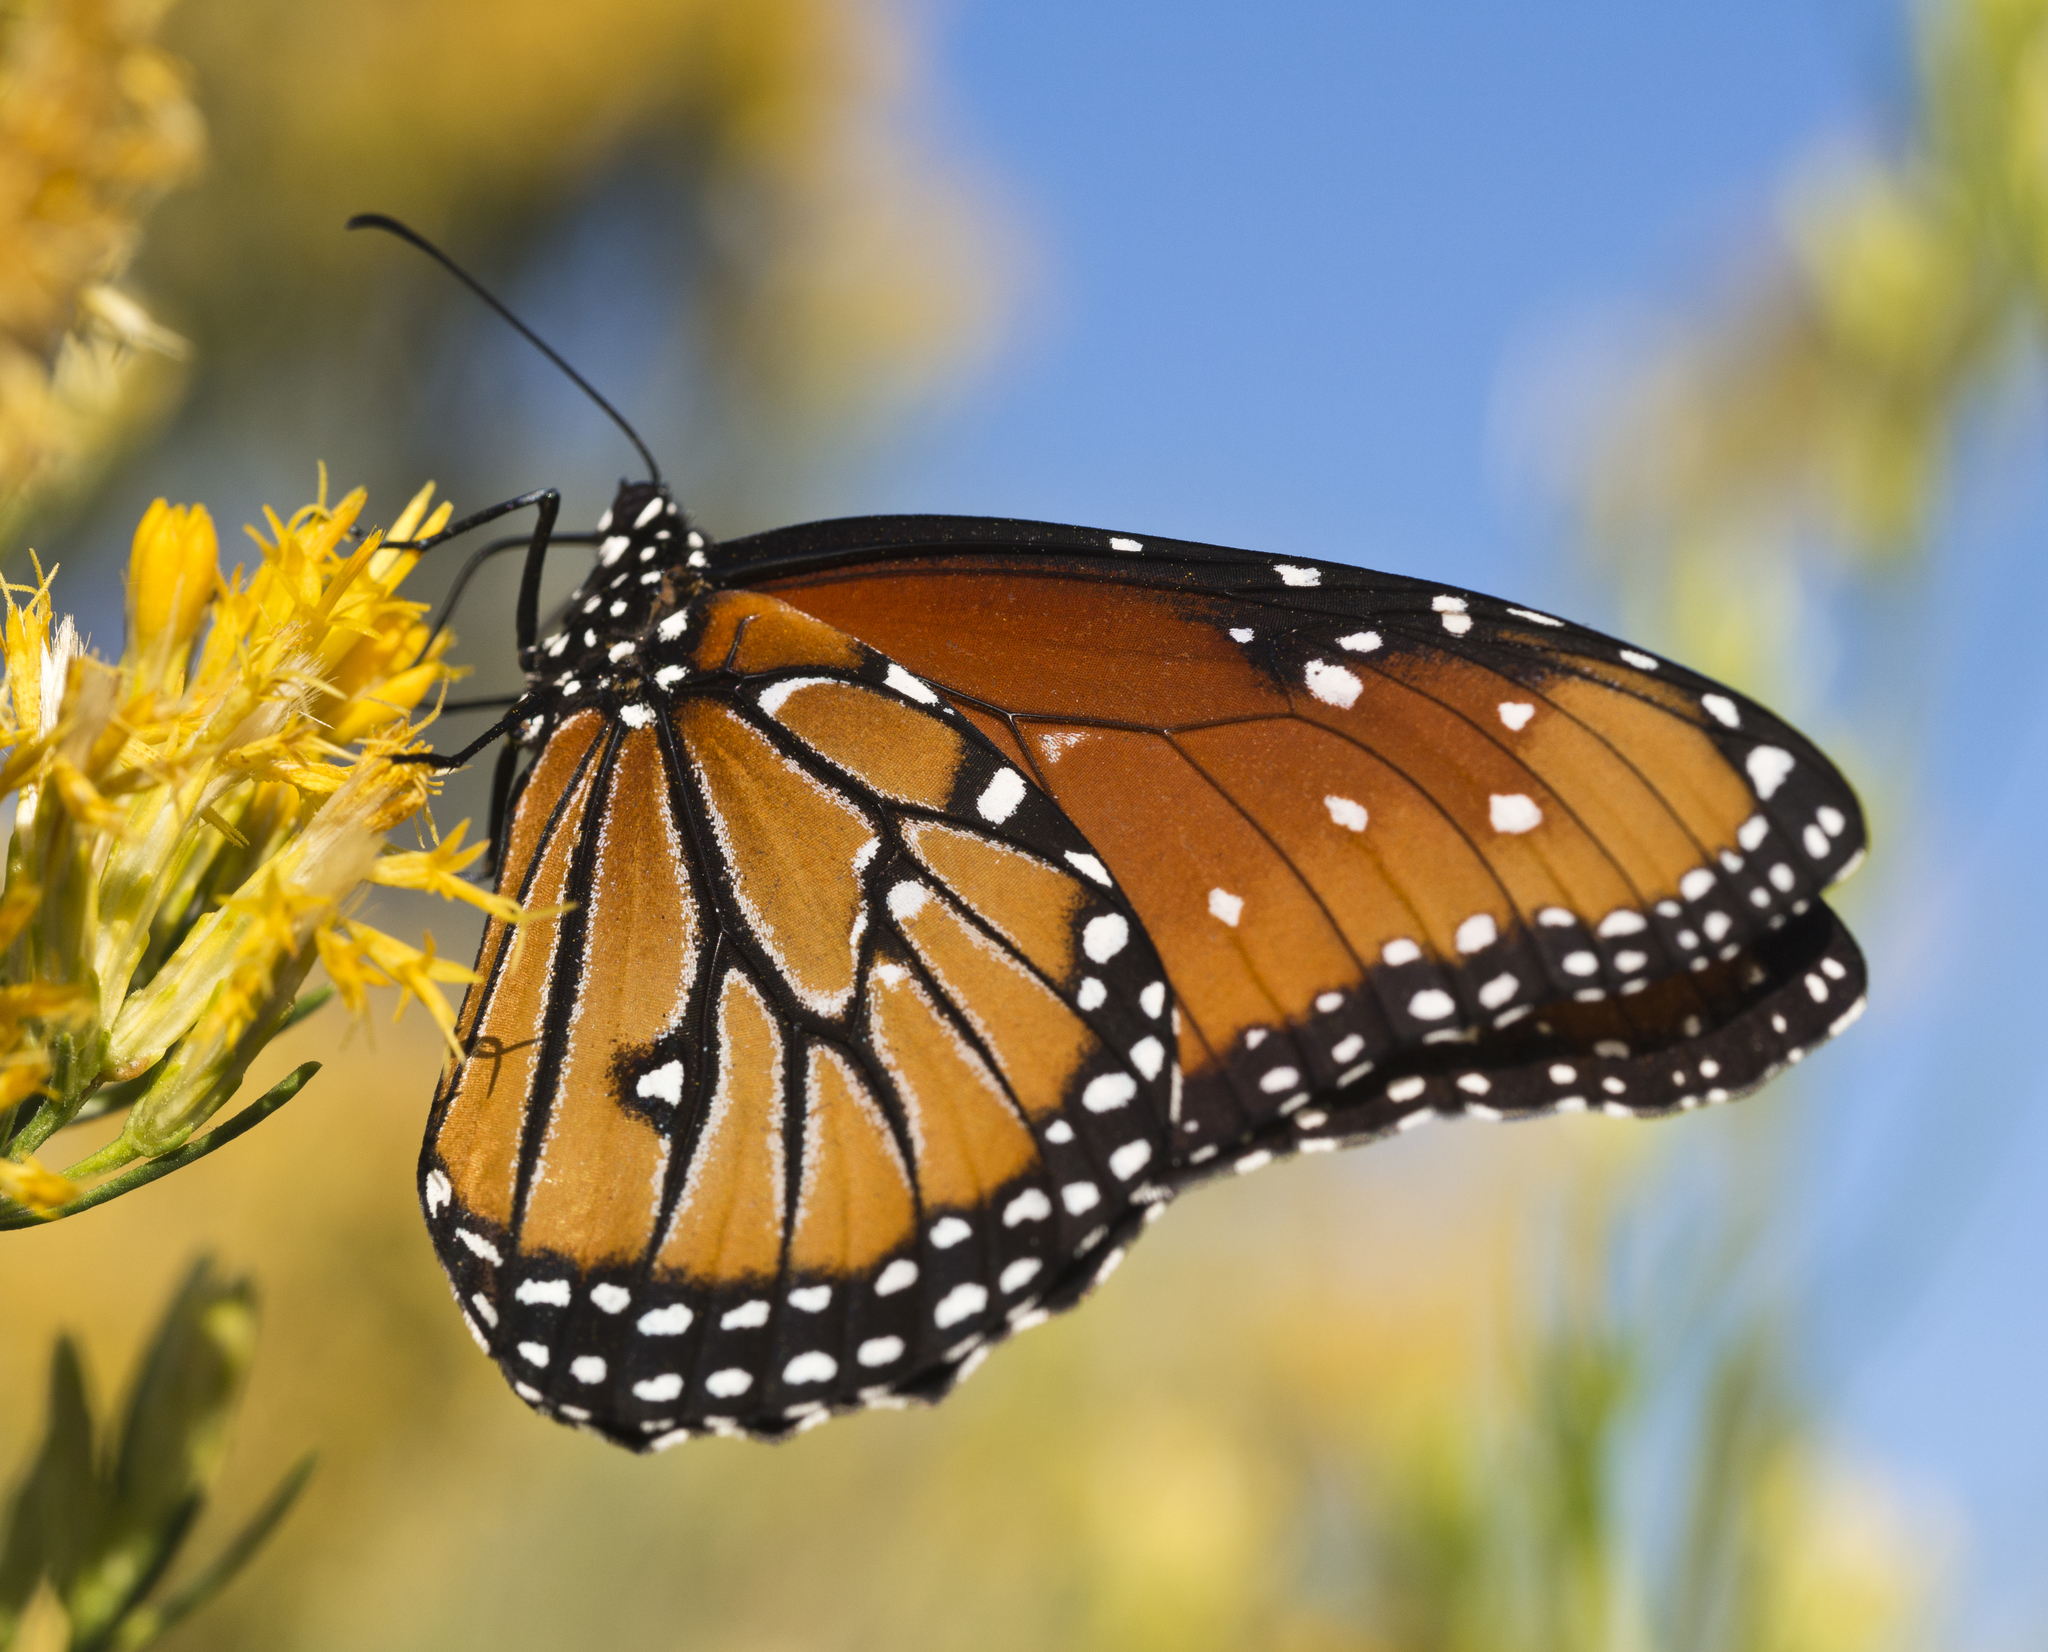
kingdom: Animalia
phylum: Arthropoda
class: Insecta
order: Lepidoptera
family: Nymphalidae
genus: Danaus
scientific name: Danaus gilippus
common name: Queen
